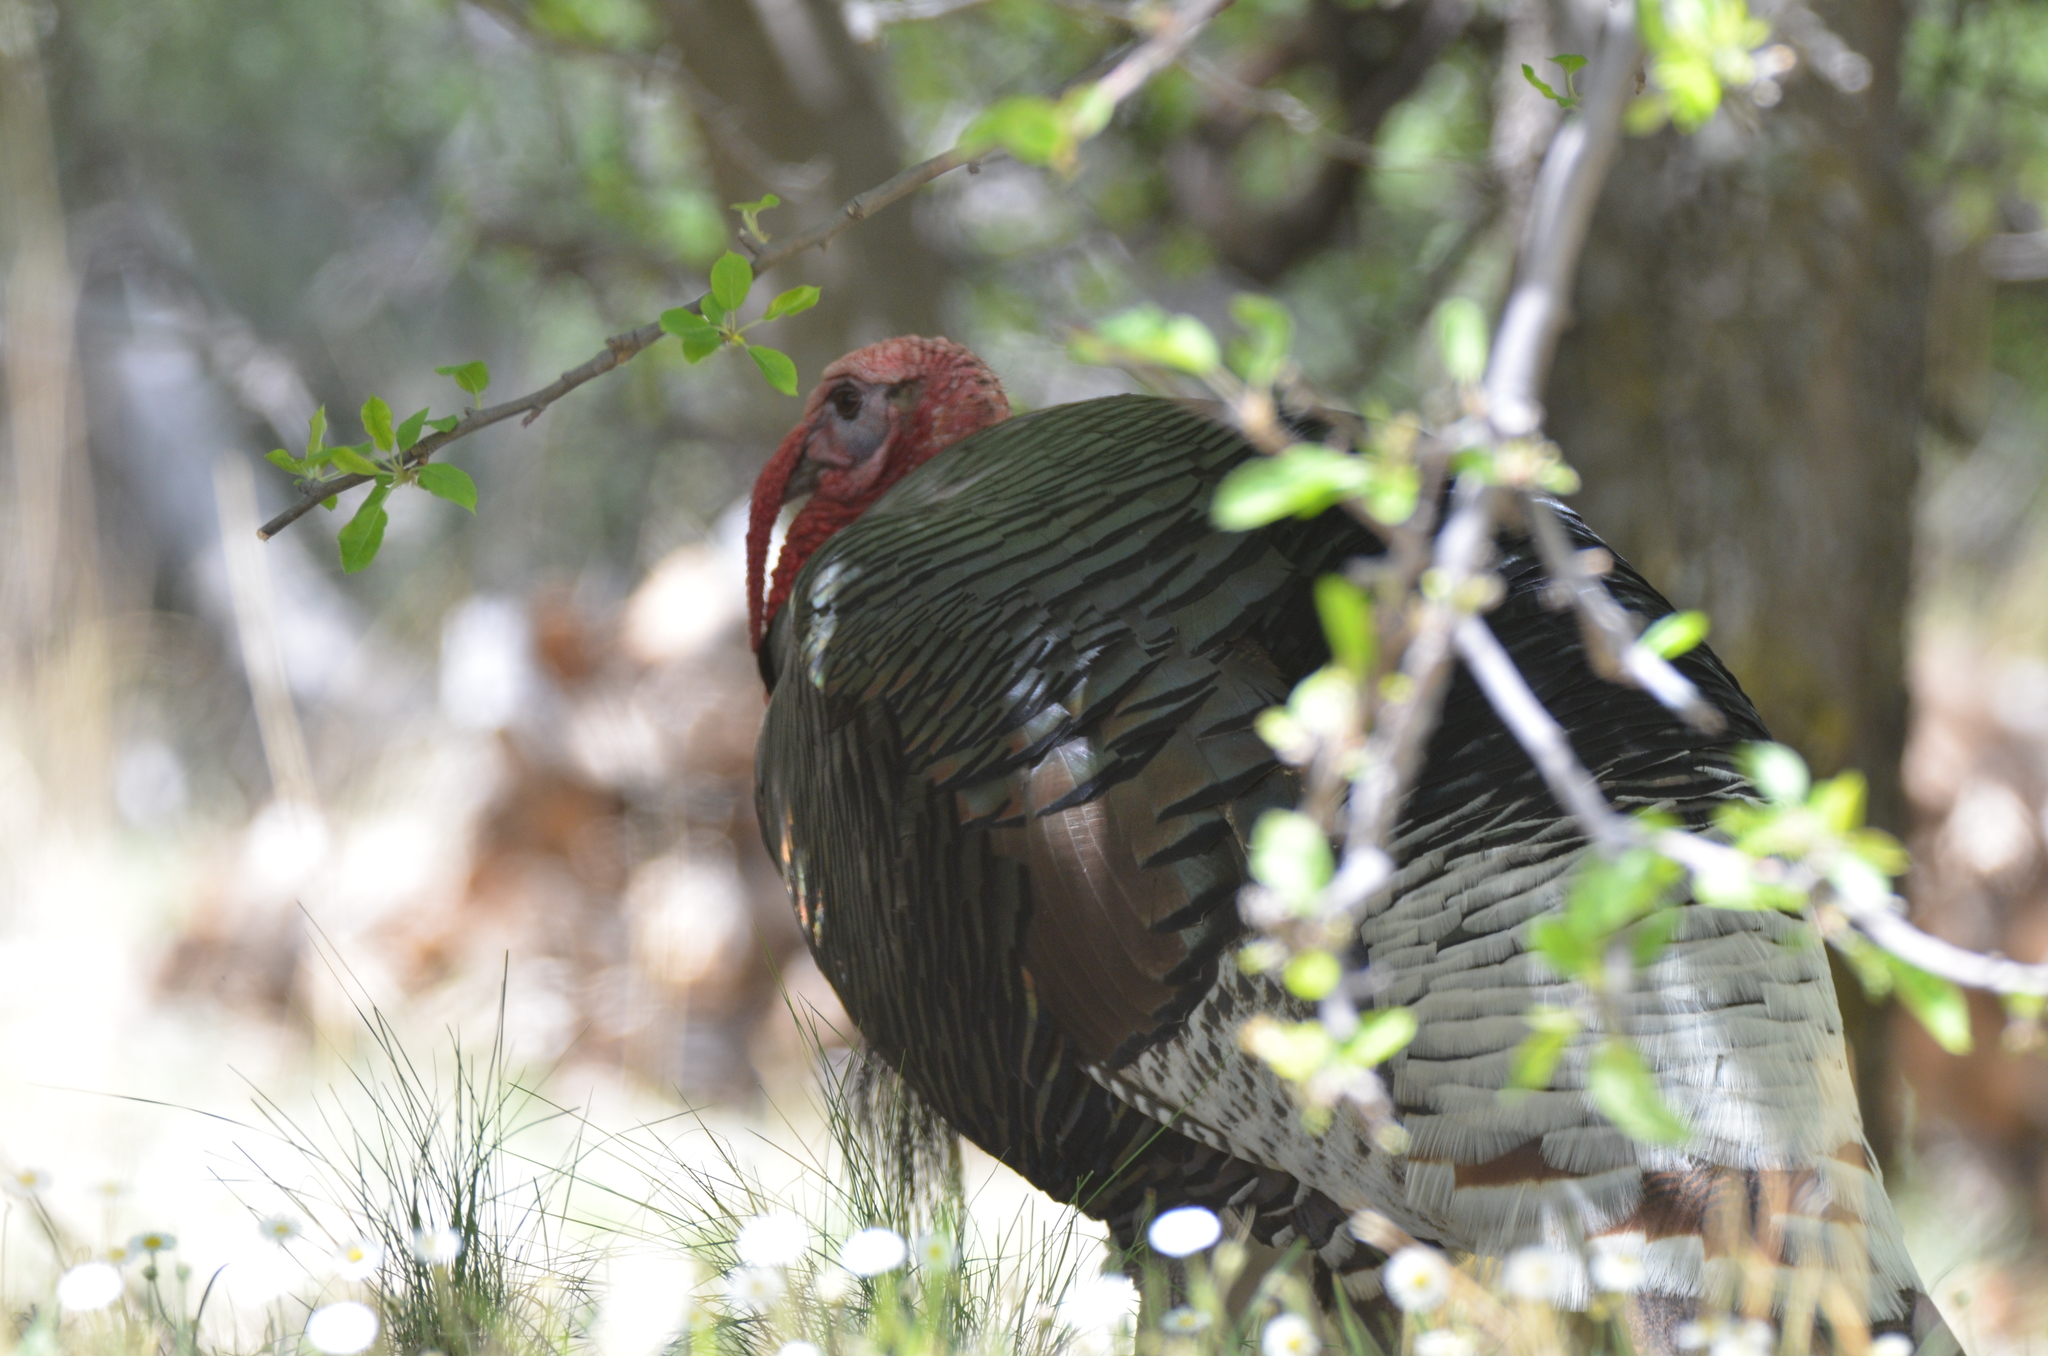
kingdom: Animalia
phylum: Chordata
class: Aves
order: Galliformes
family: Phasianidae
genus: Meleagris
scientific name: Meleagris gallopavo
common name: Wild turkey
